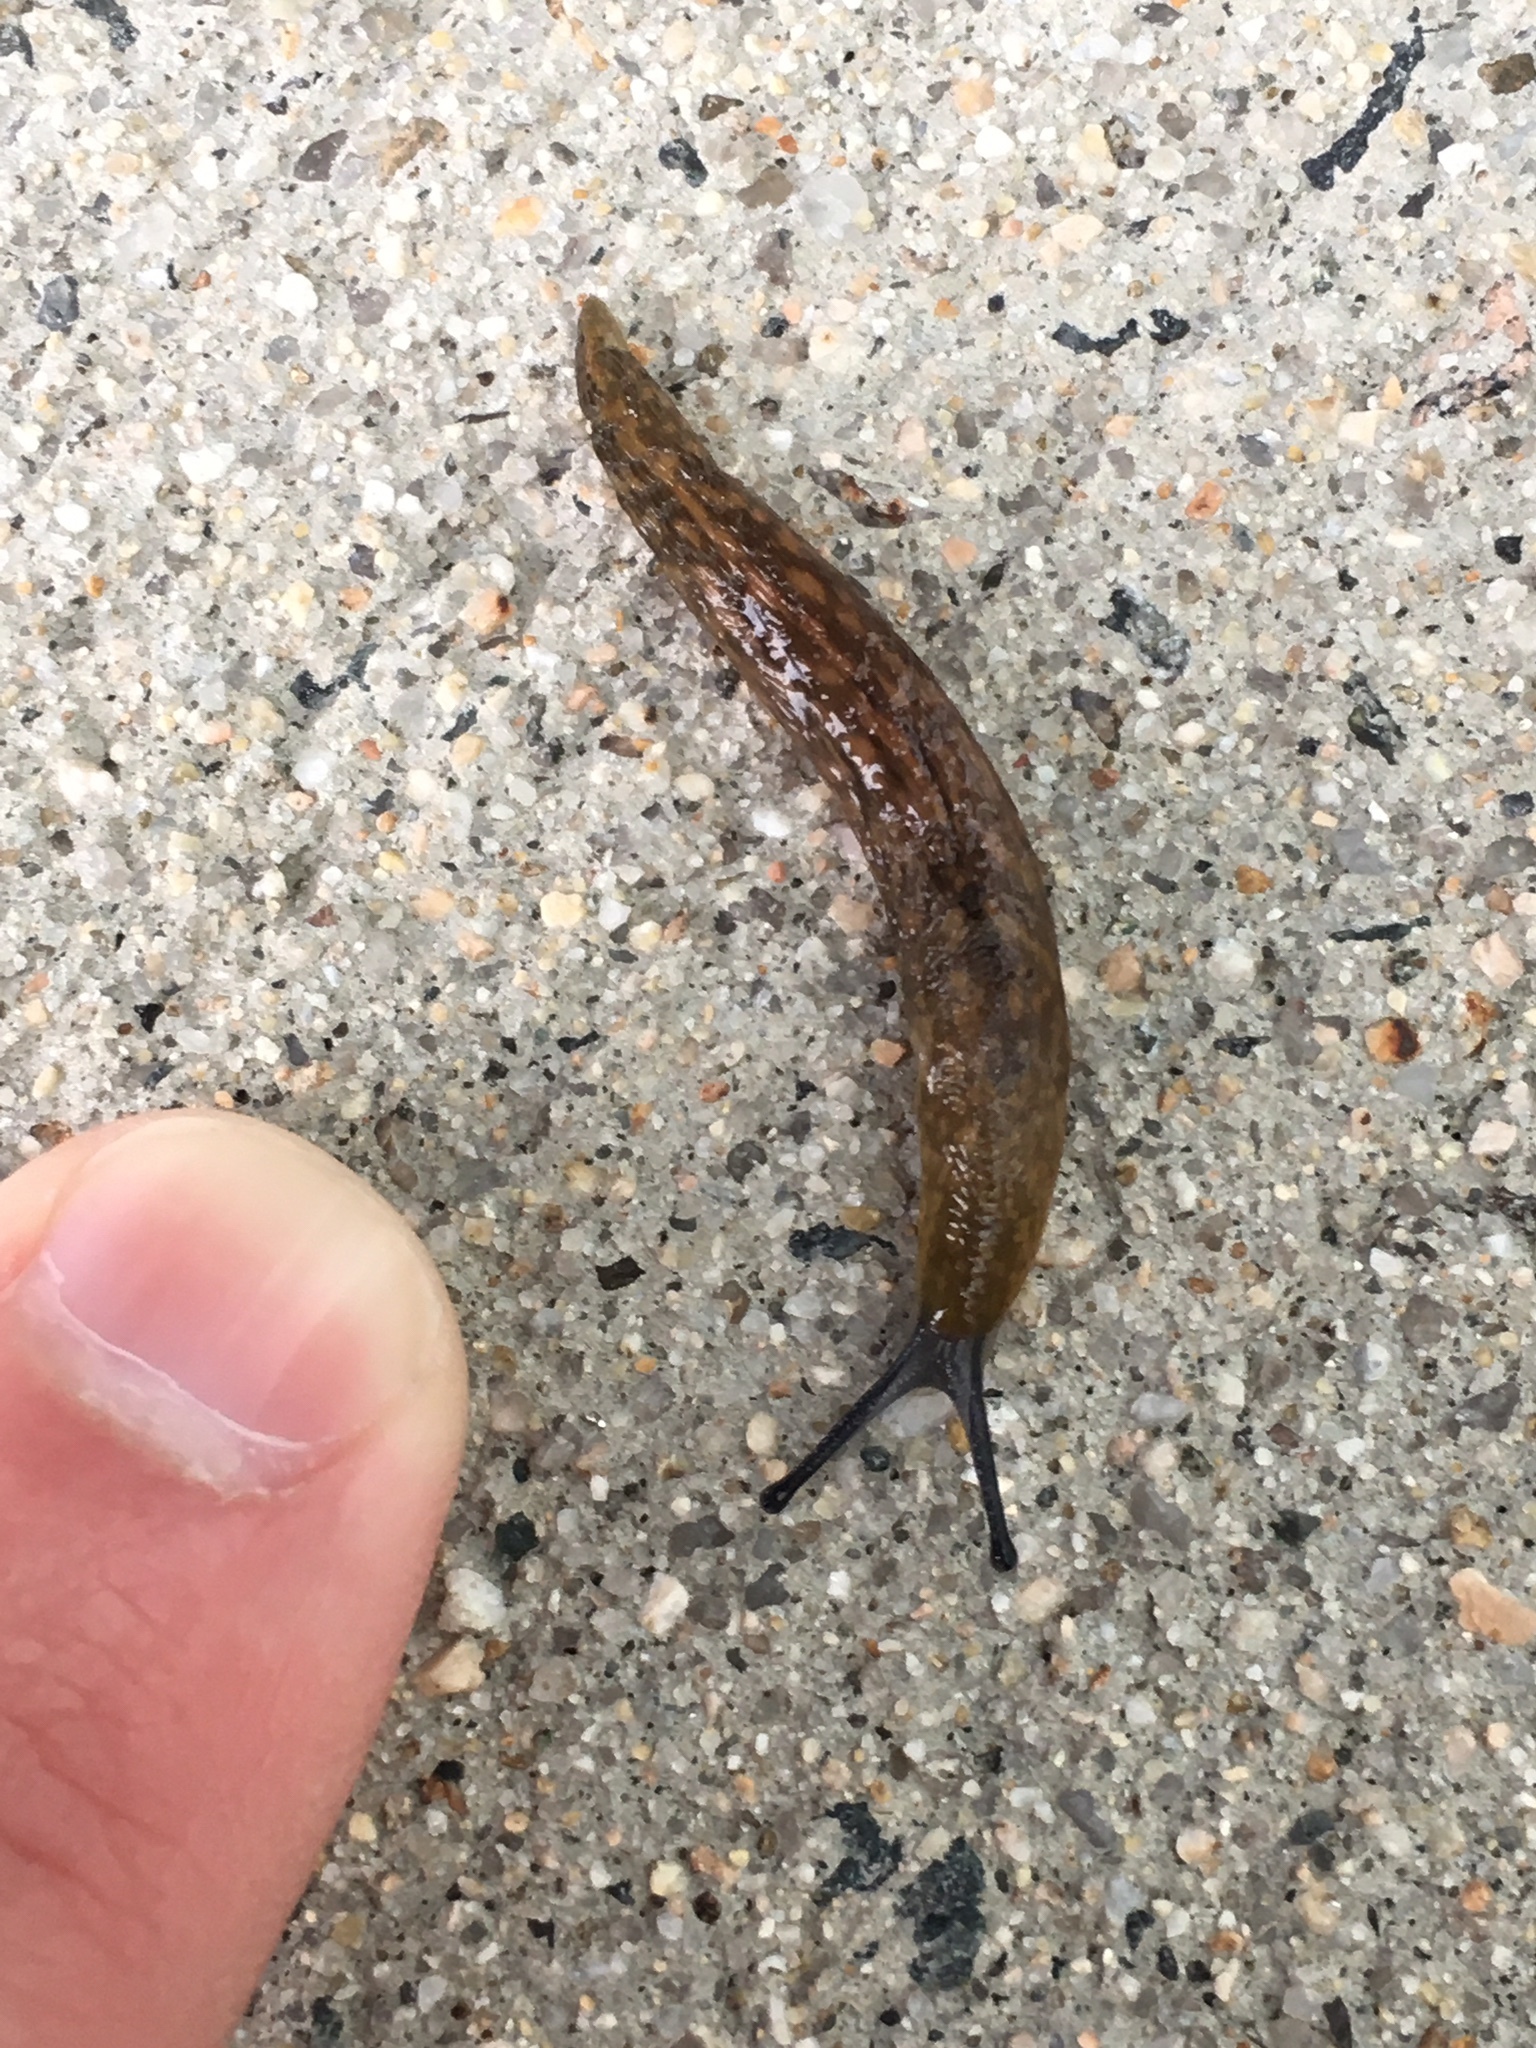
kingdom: Animalia
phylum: Mollusca
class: Gastropoda
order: Stylommatophora
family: Limacidae
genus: Limacus
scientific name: Limacus flavus
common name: Yellow gardenslug
